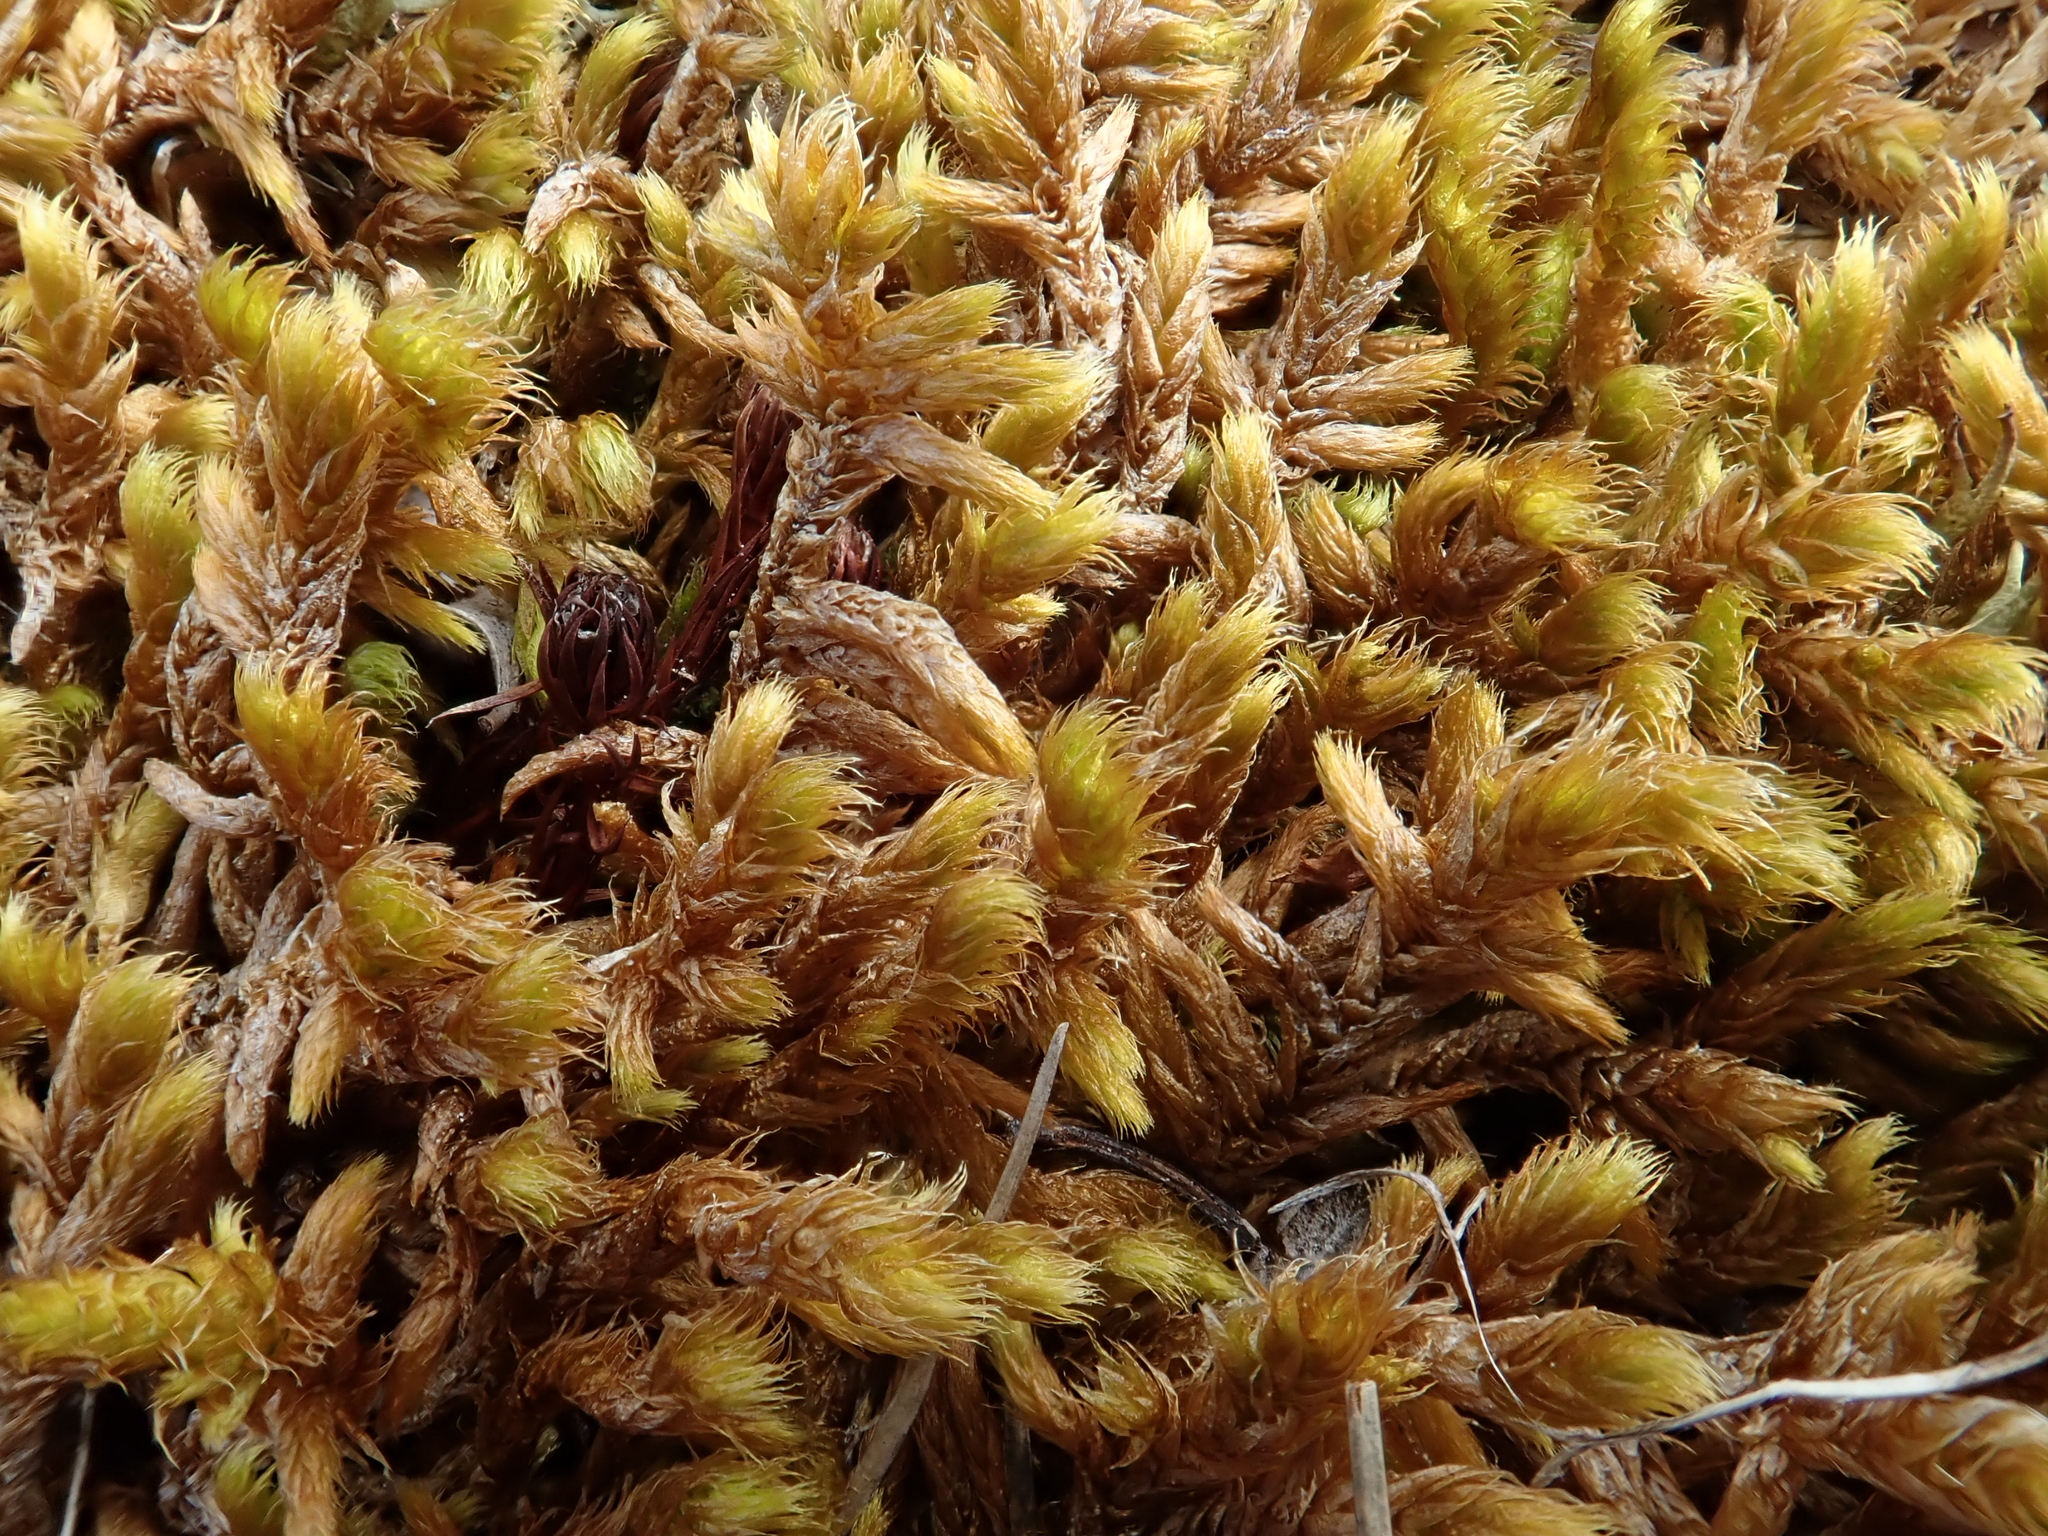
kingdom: Plantae
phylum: Bryophyta
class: Bryopsida
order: Hypnales
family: Rhytidiaceae
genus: Rhytidium
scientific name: Rhytidium rugosum
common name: Wrinkle-leaved moss
